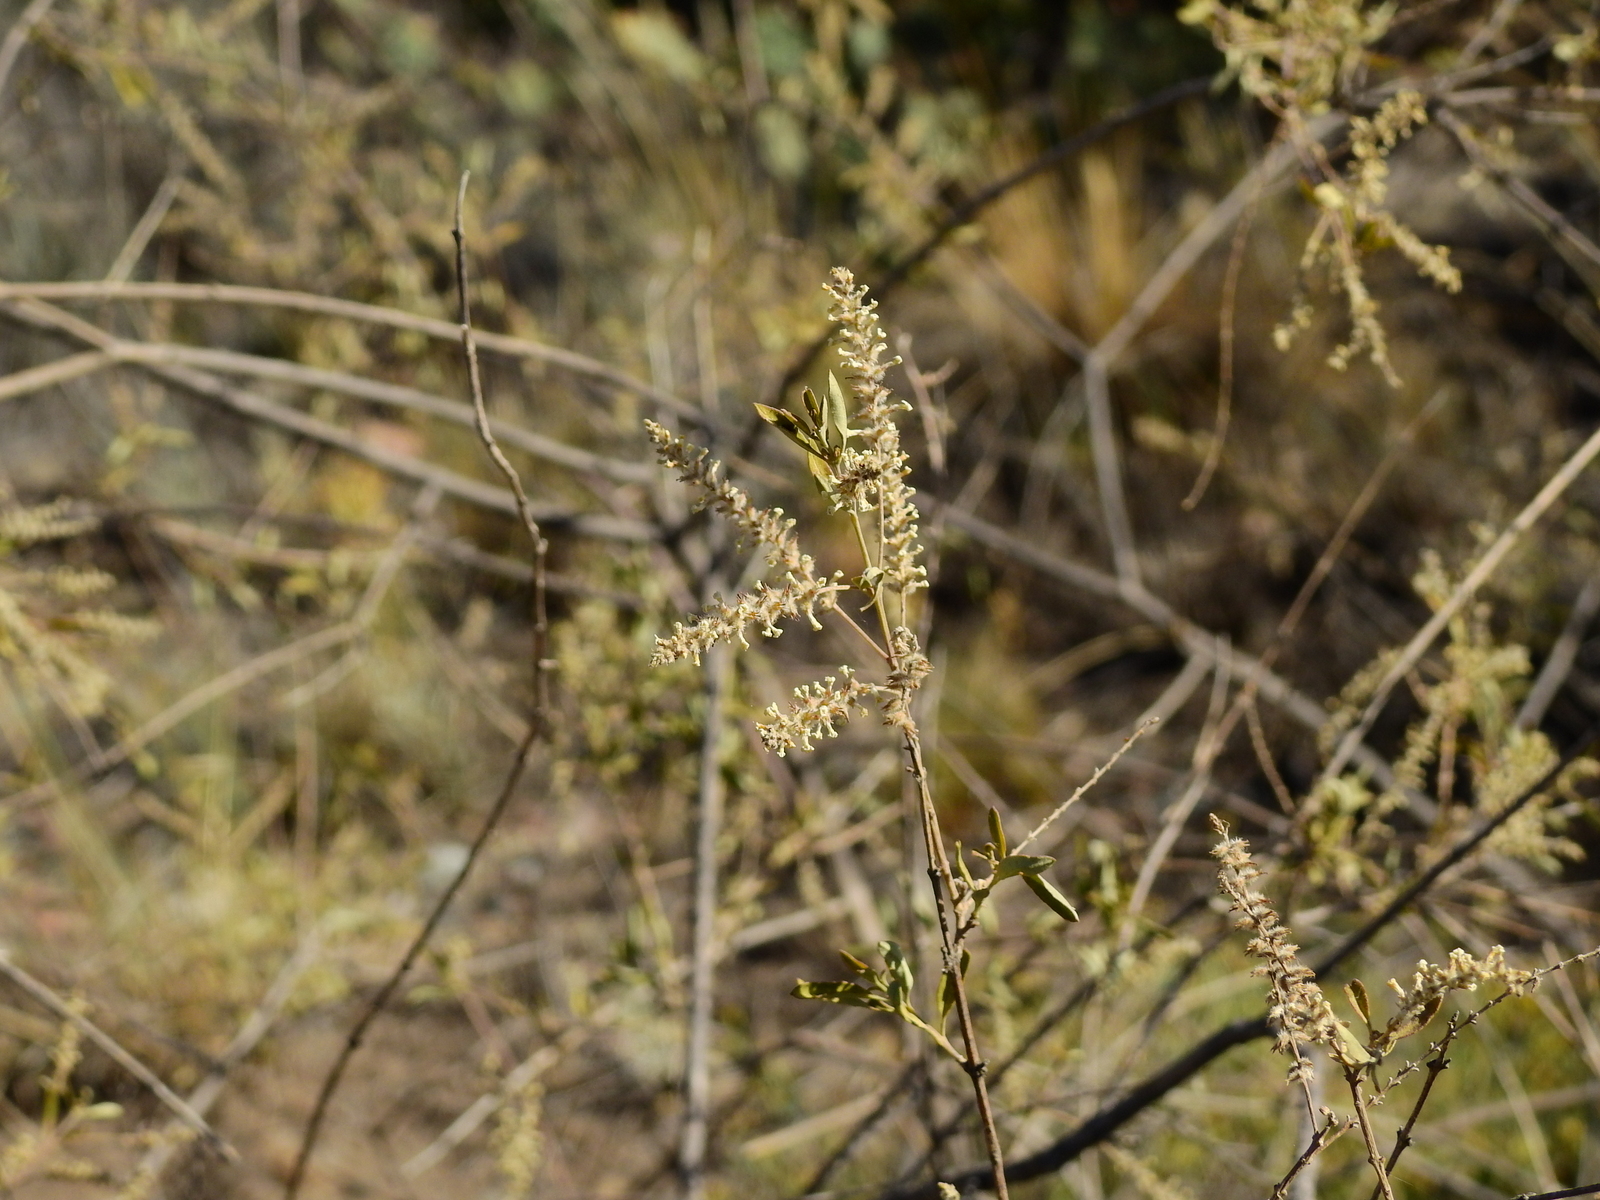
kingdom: Plantae
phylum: Tracheophyta
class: Magnoliopsida
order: Lamiales
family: Verbenaceae
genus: Aloysia
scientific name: Aloysia gratissima
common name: Common bee-brush
